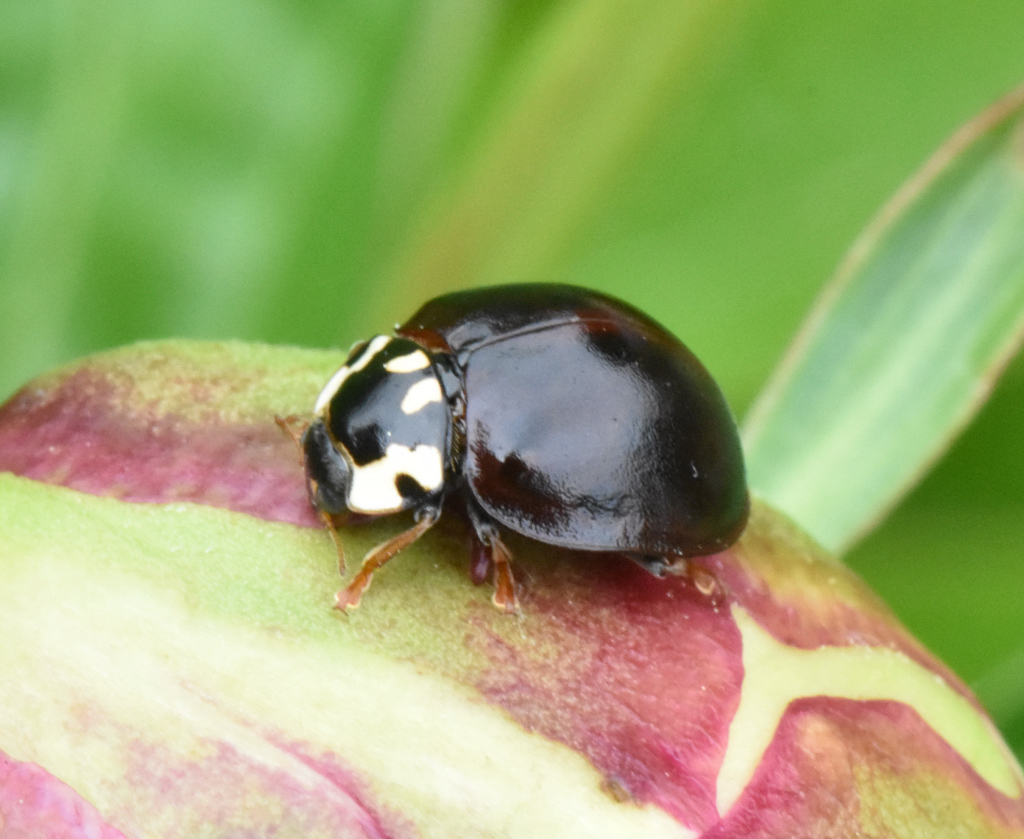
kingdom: Animalia
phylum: Arthropoda
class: Insecta
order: Coleoptera
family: Coccinellidae
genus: Anatis
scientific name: Anatis labiculata
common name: Fifteen-spotted lady beetle
